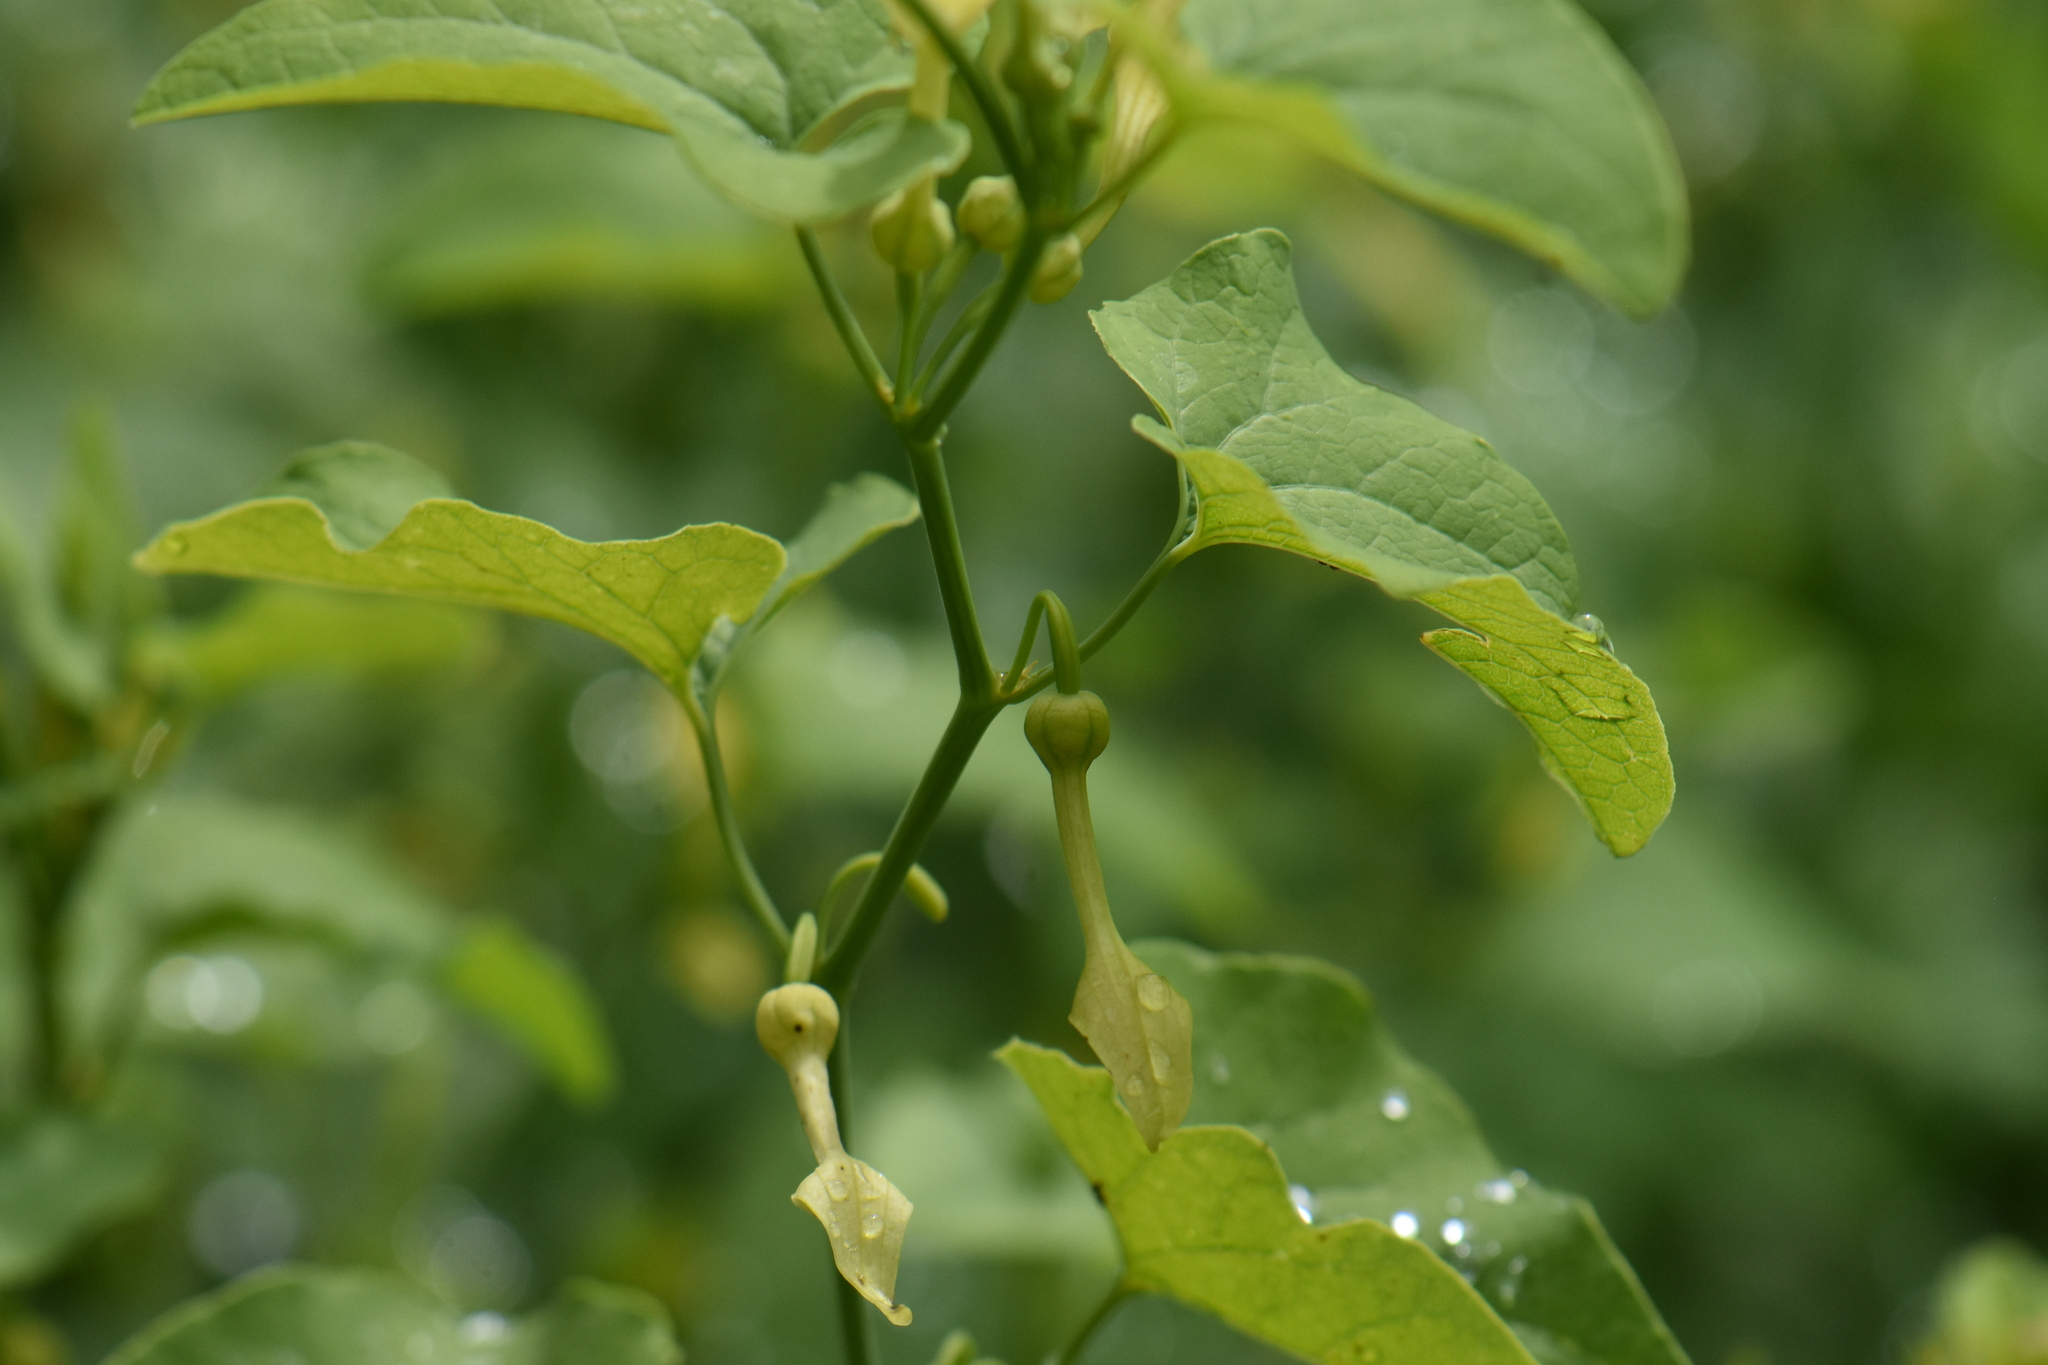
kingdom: Plantae
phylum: Tracheophyta
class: Magnoliopsida
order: Piperales
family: Aristolochiaceae
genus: Aristolochia
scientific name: Aristolochia clematitis
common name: Birthwort
